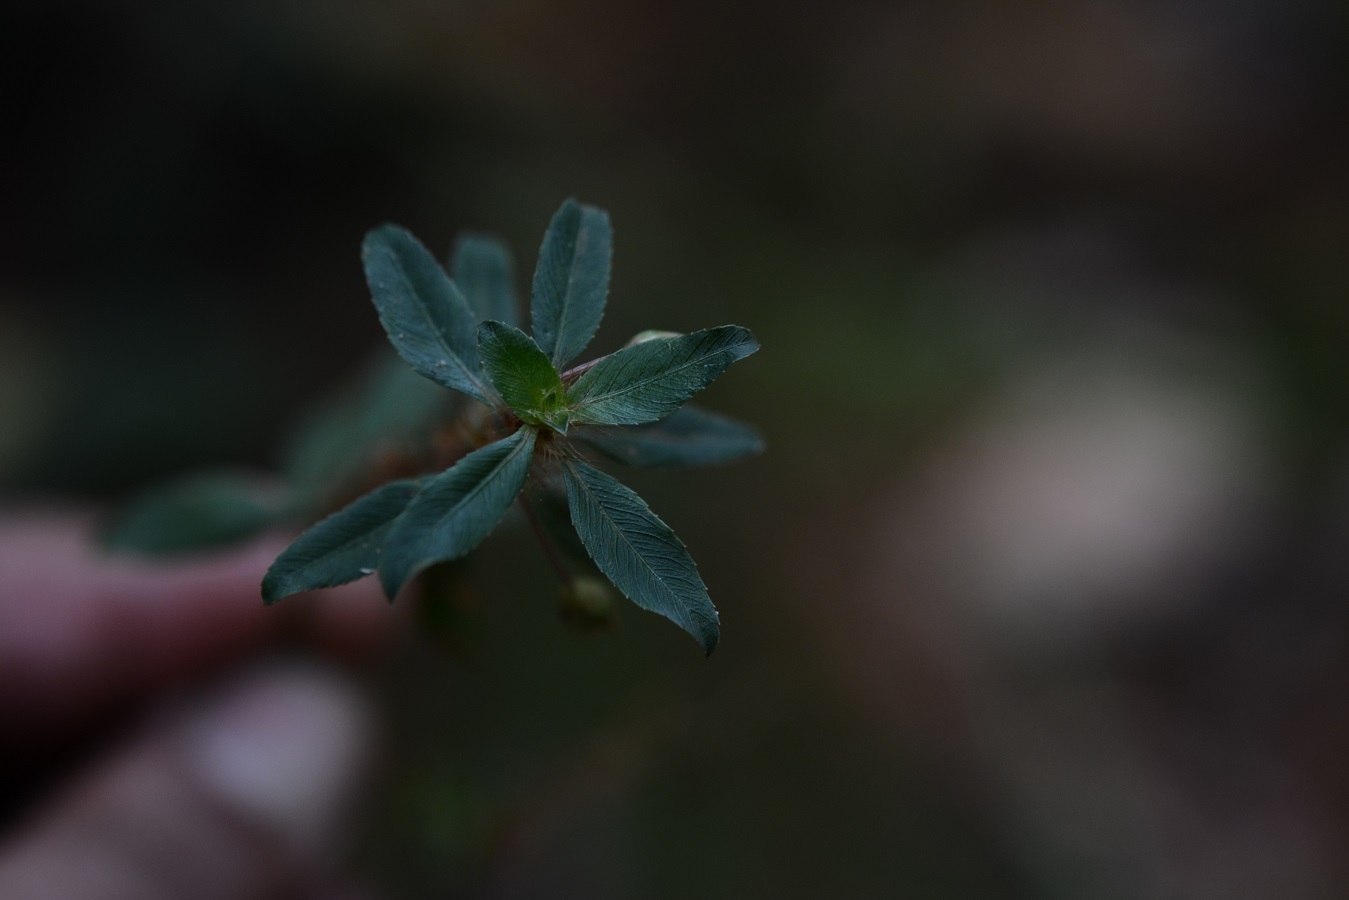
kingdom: Plantae
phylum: Tracheophyta
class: Magnoliopsida
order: Malpighiales
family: Ochnaceae
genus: Sauvagesia
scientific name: Sauvagesia erecta
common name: Creole tea
